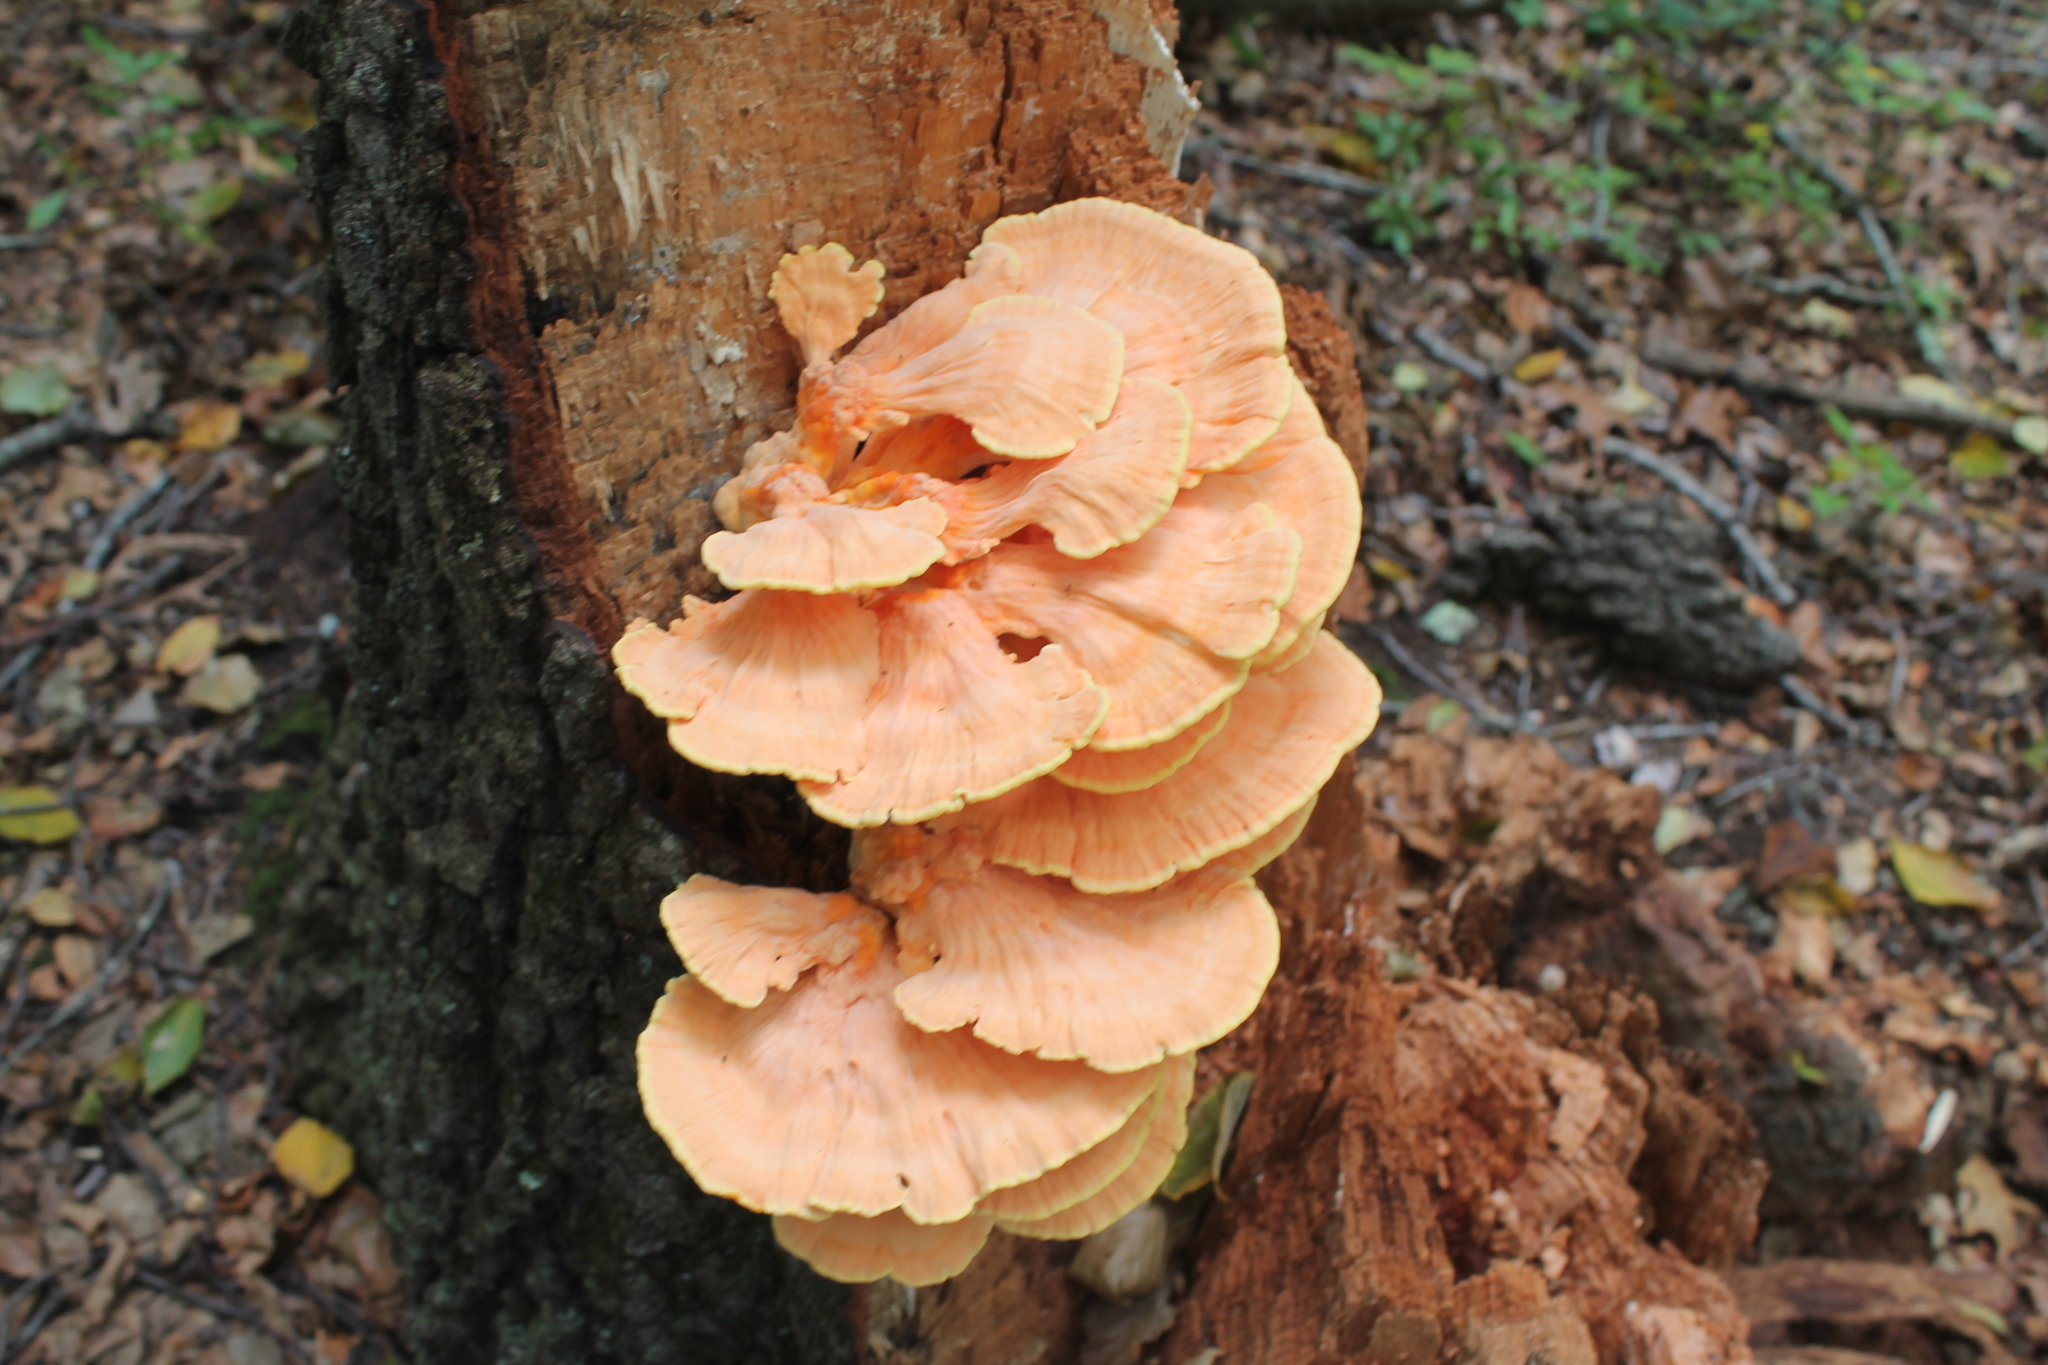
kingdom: Fungi
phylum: Basidiomycota
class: Agaricomycetes
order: Polyporales
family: Laetiporaceae
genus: Laetiporus
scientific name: Laetiporus sulphureus
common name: Chicken of the woods
